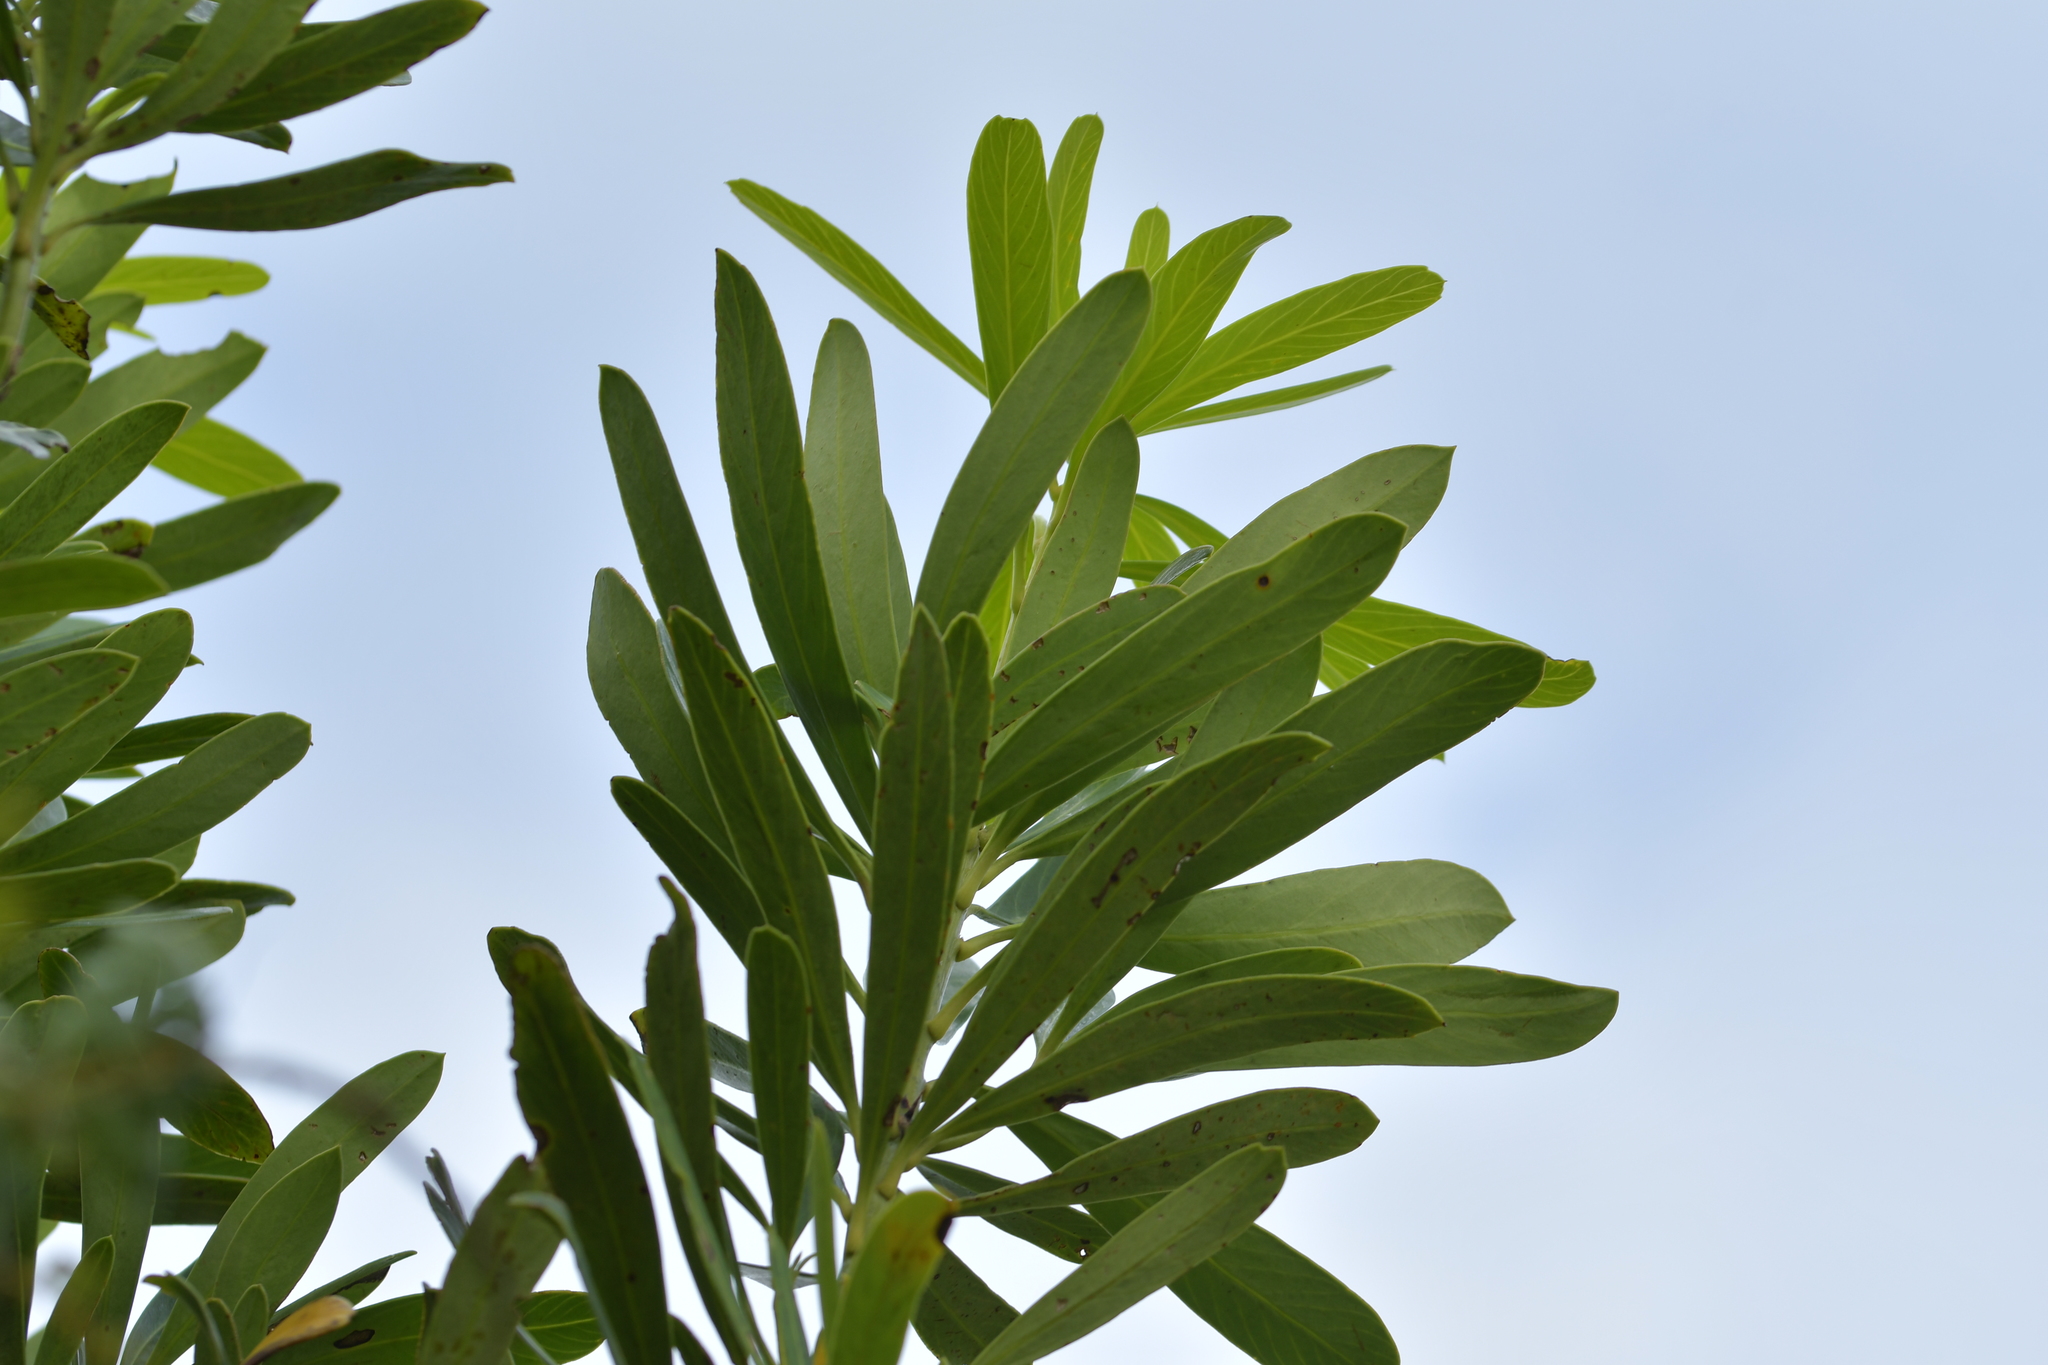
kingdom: Plantae
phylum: Tracheophyta
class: Magnoliopsida
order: Apiales
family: Araliaceae
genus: Pseudopanax
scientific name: Pseudopanax chathamicus
